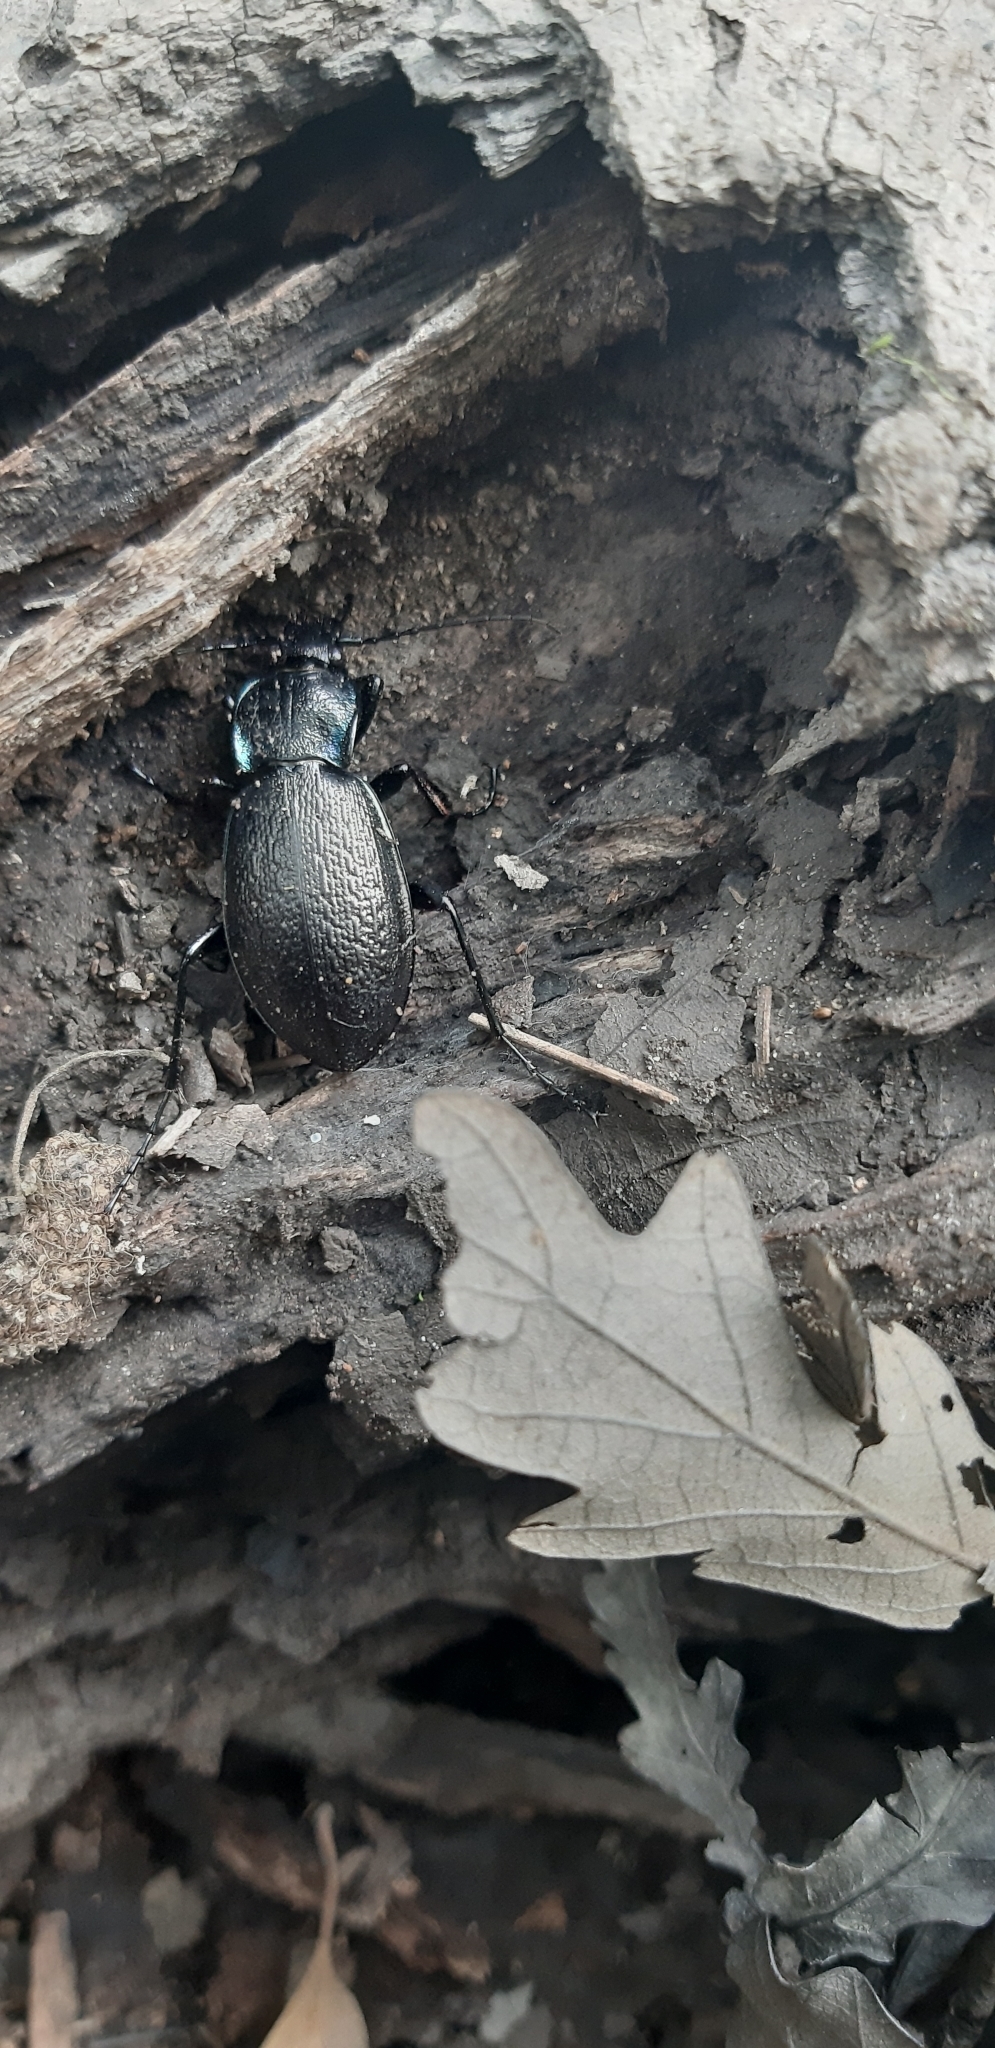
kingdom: Animalia
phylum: Arthropoda
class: Insecta
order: Coleoptera
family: Carabidae
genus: Carabus
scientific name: Carabus rossii
